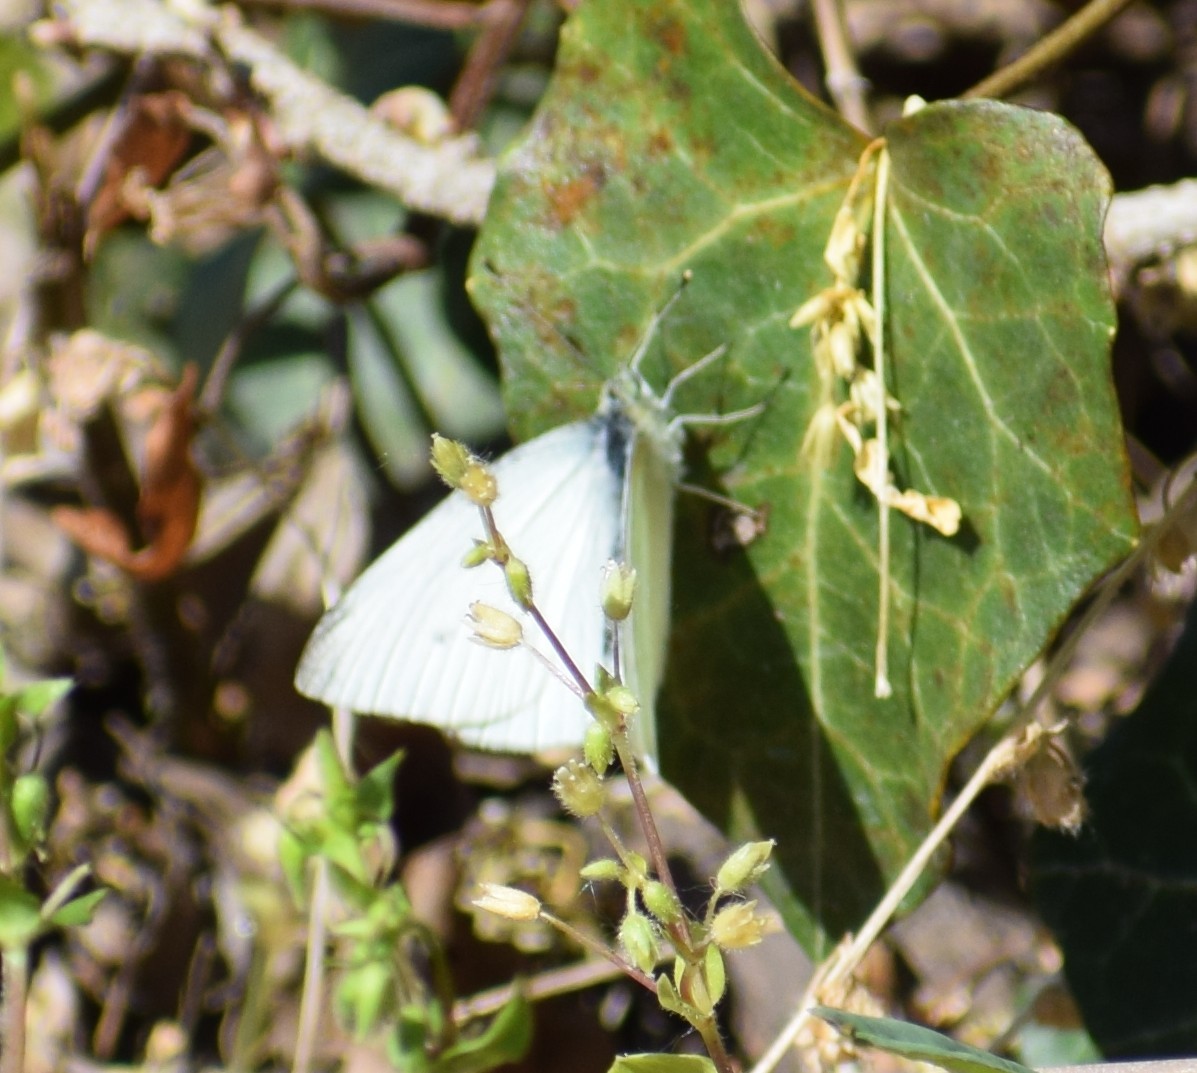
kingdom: Animalia
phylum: Arthropoda
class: Insecta
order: Lepidoptera
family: Pieridae
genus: Pieris
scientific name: Pieris rapae
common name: Small white
